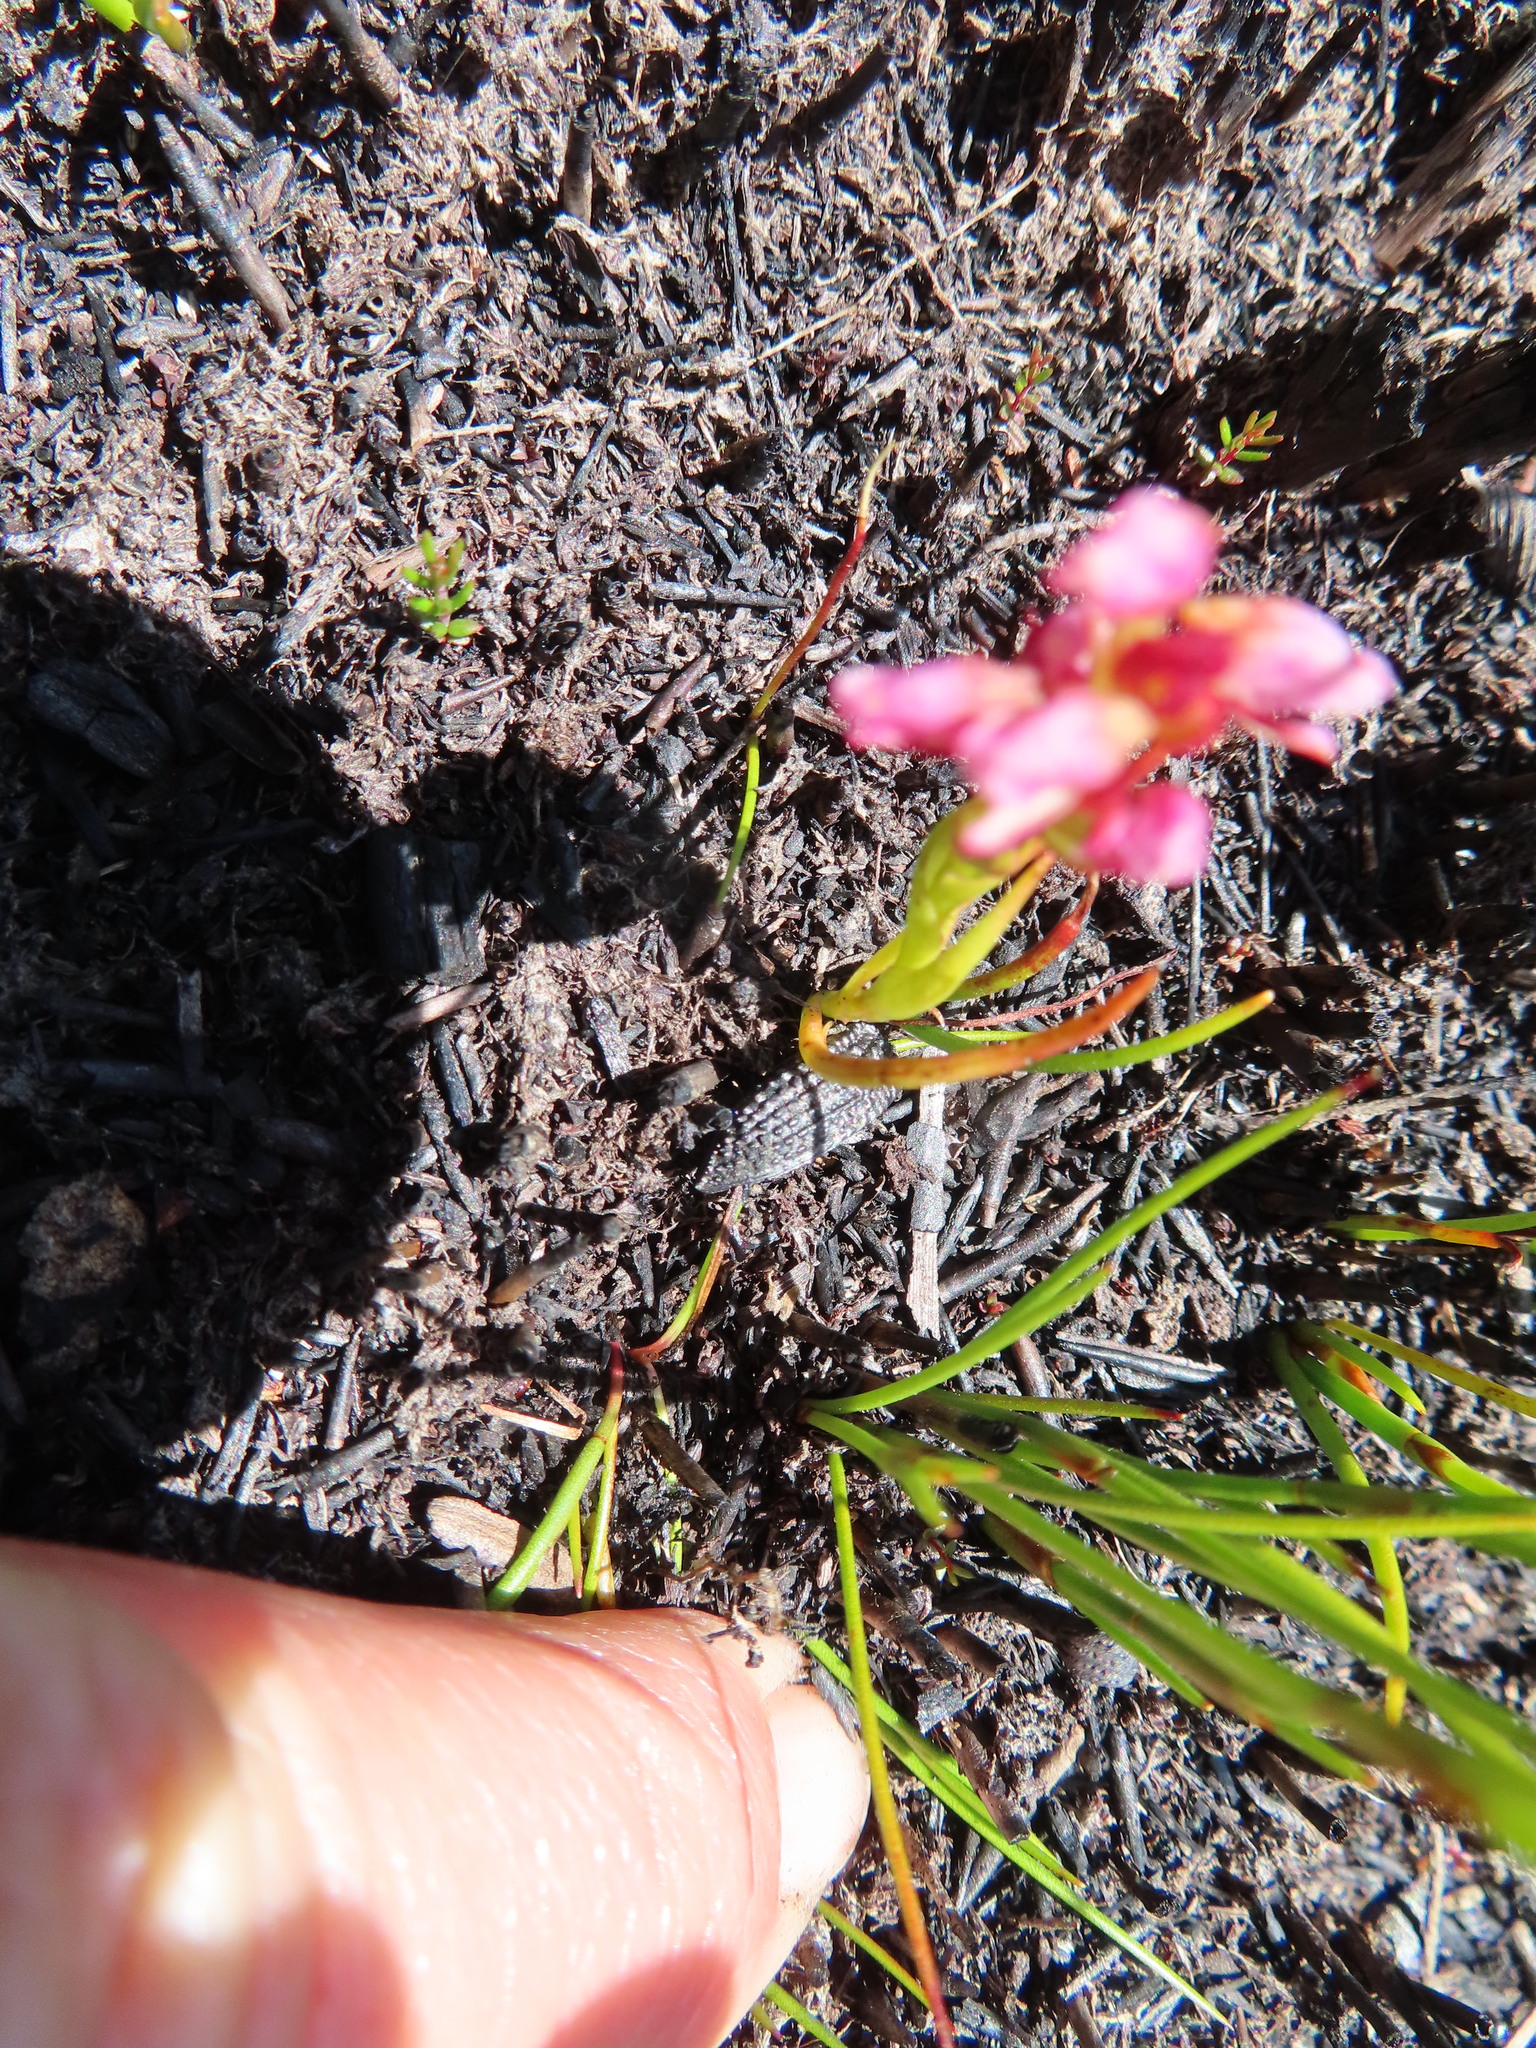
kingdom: Plantae
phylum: Tracheophyta
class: Liliopsida
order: Asparagales
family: Orchidaceae
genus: Disa
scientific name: Disa obtusa
